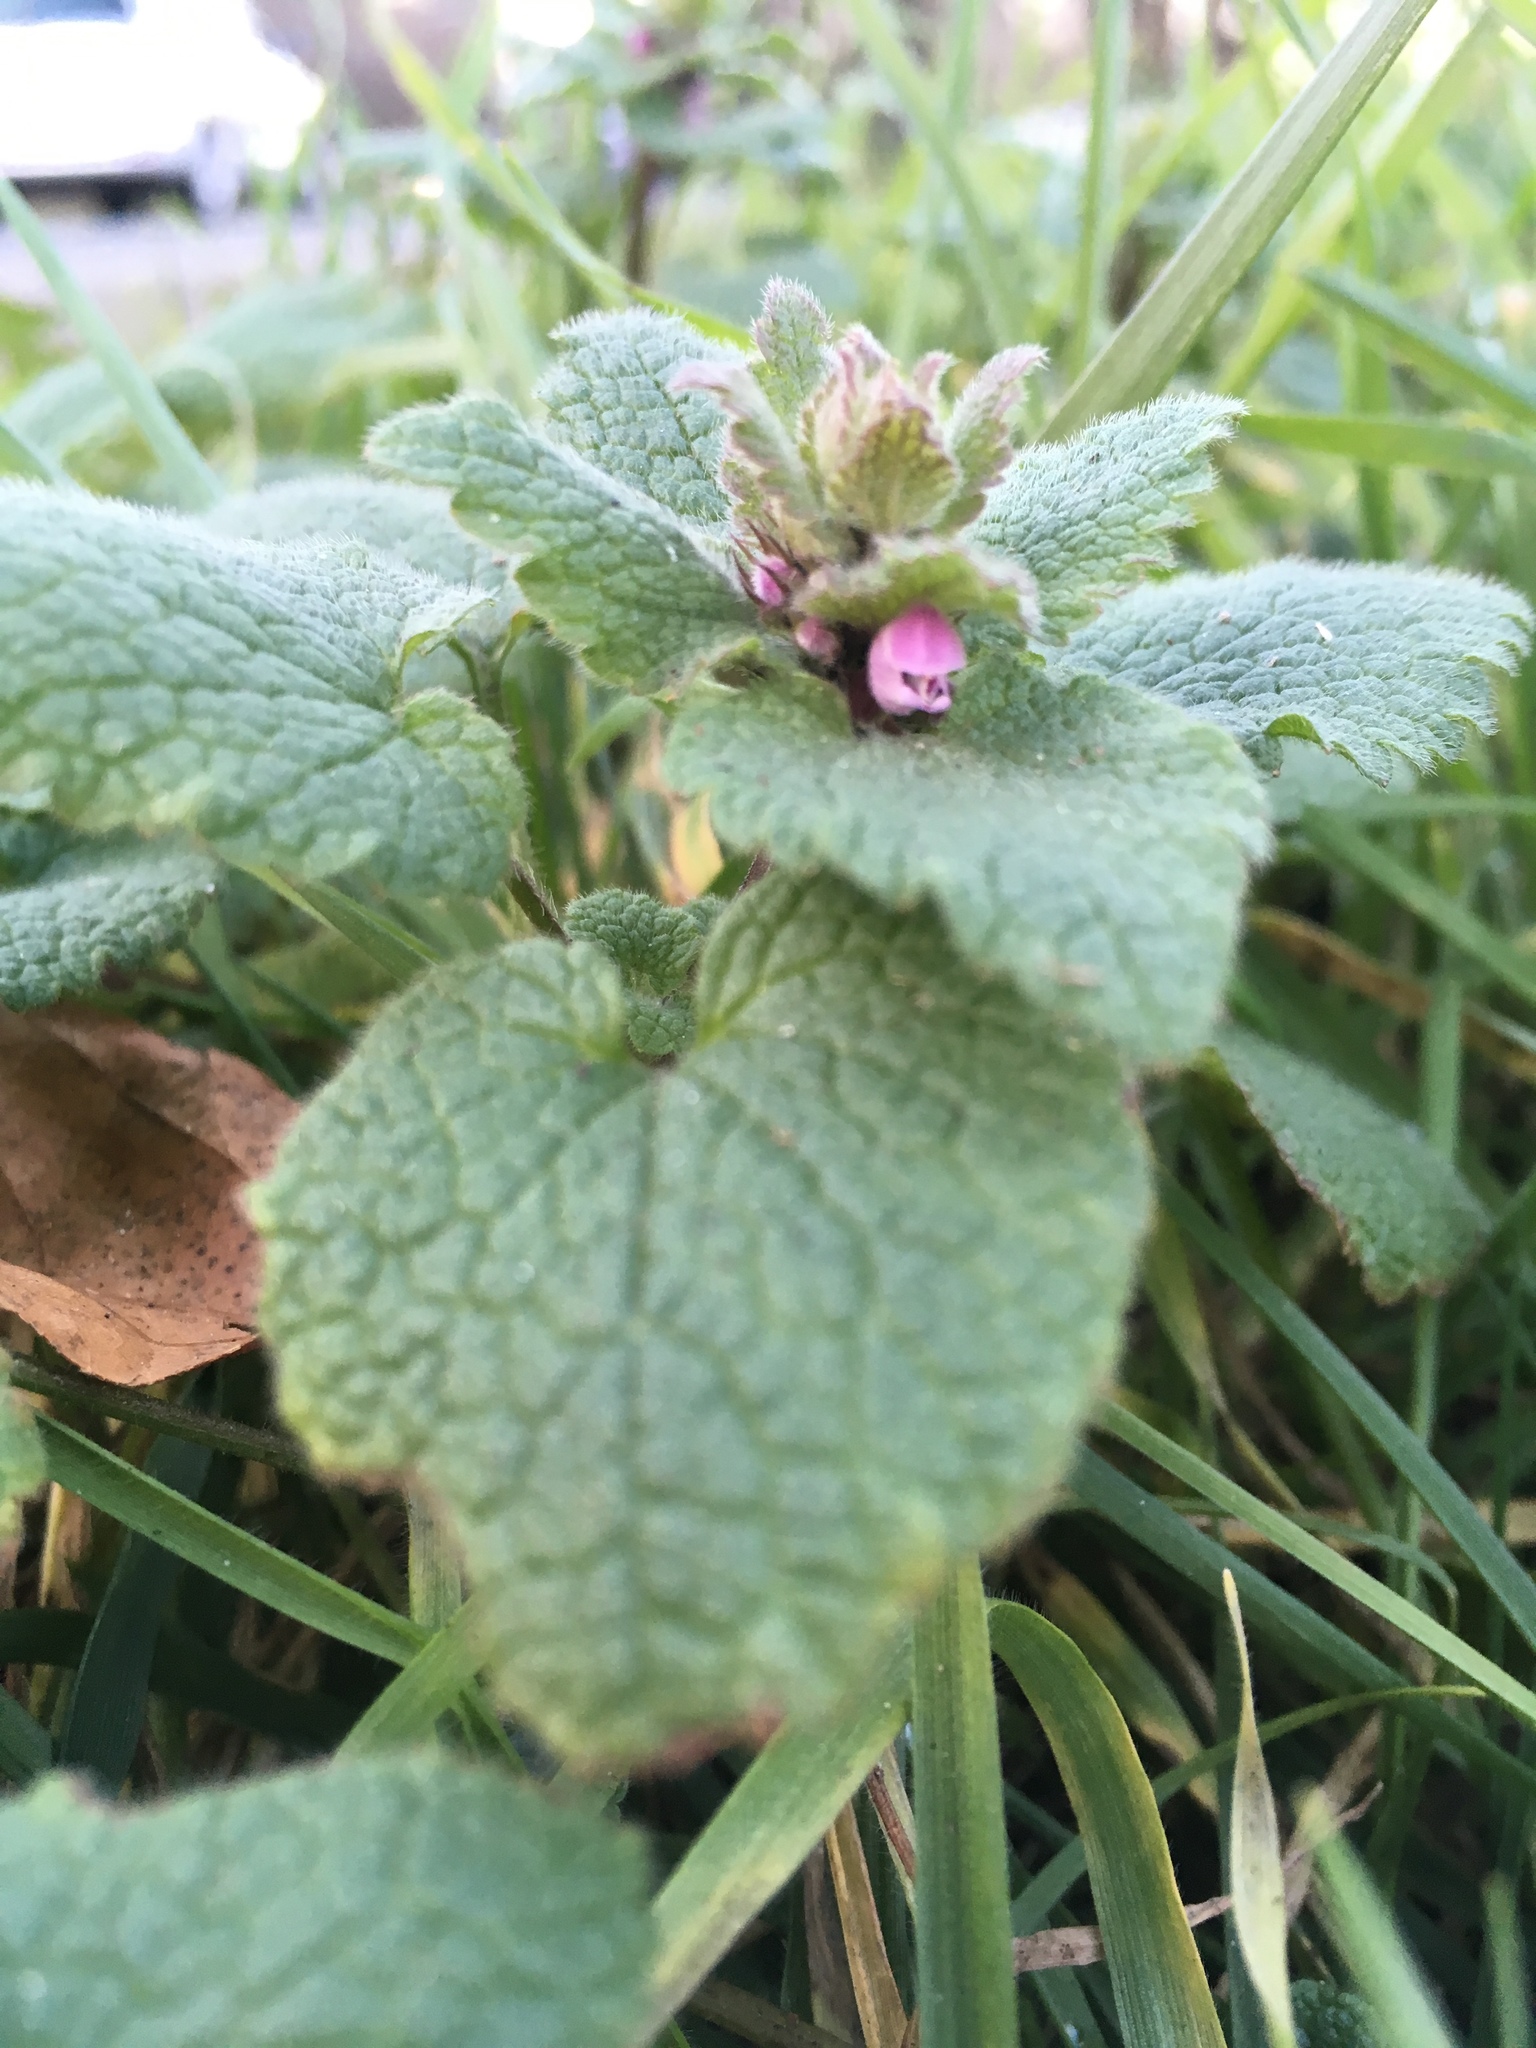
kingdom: Plantae
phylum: Tracheophyta
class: Magnoliopsida
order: Lamiales
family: Lamiaceae
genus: Lamium
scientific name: Lamium purpureum
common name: Red dead-nettle
